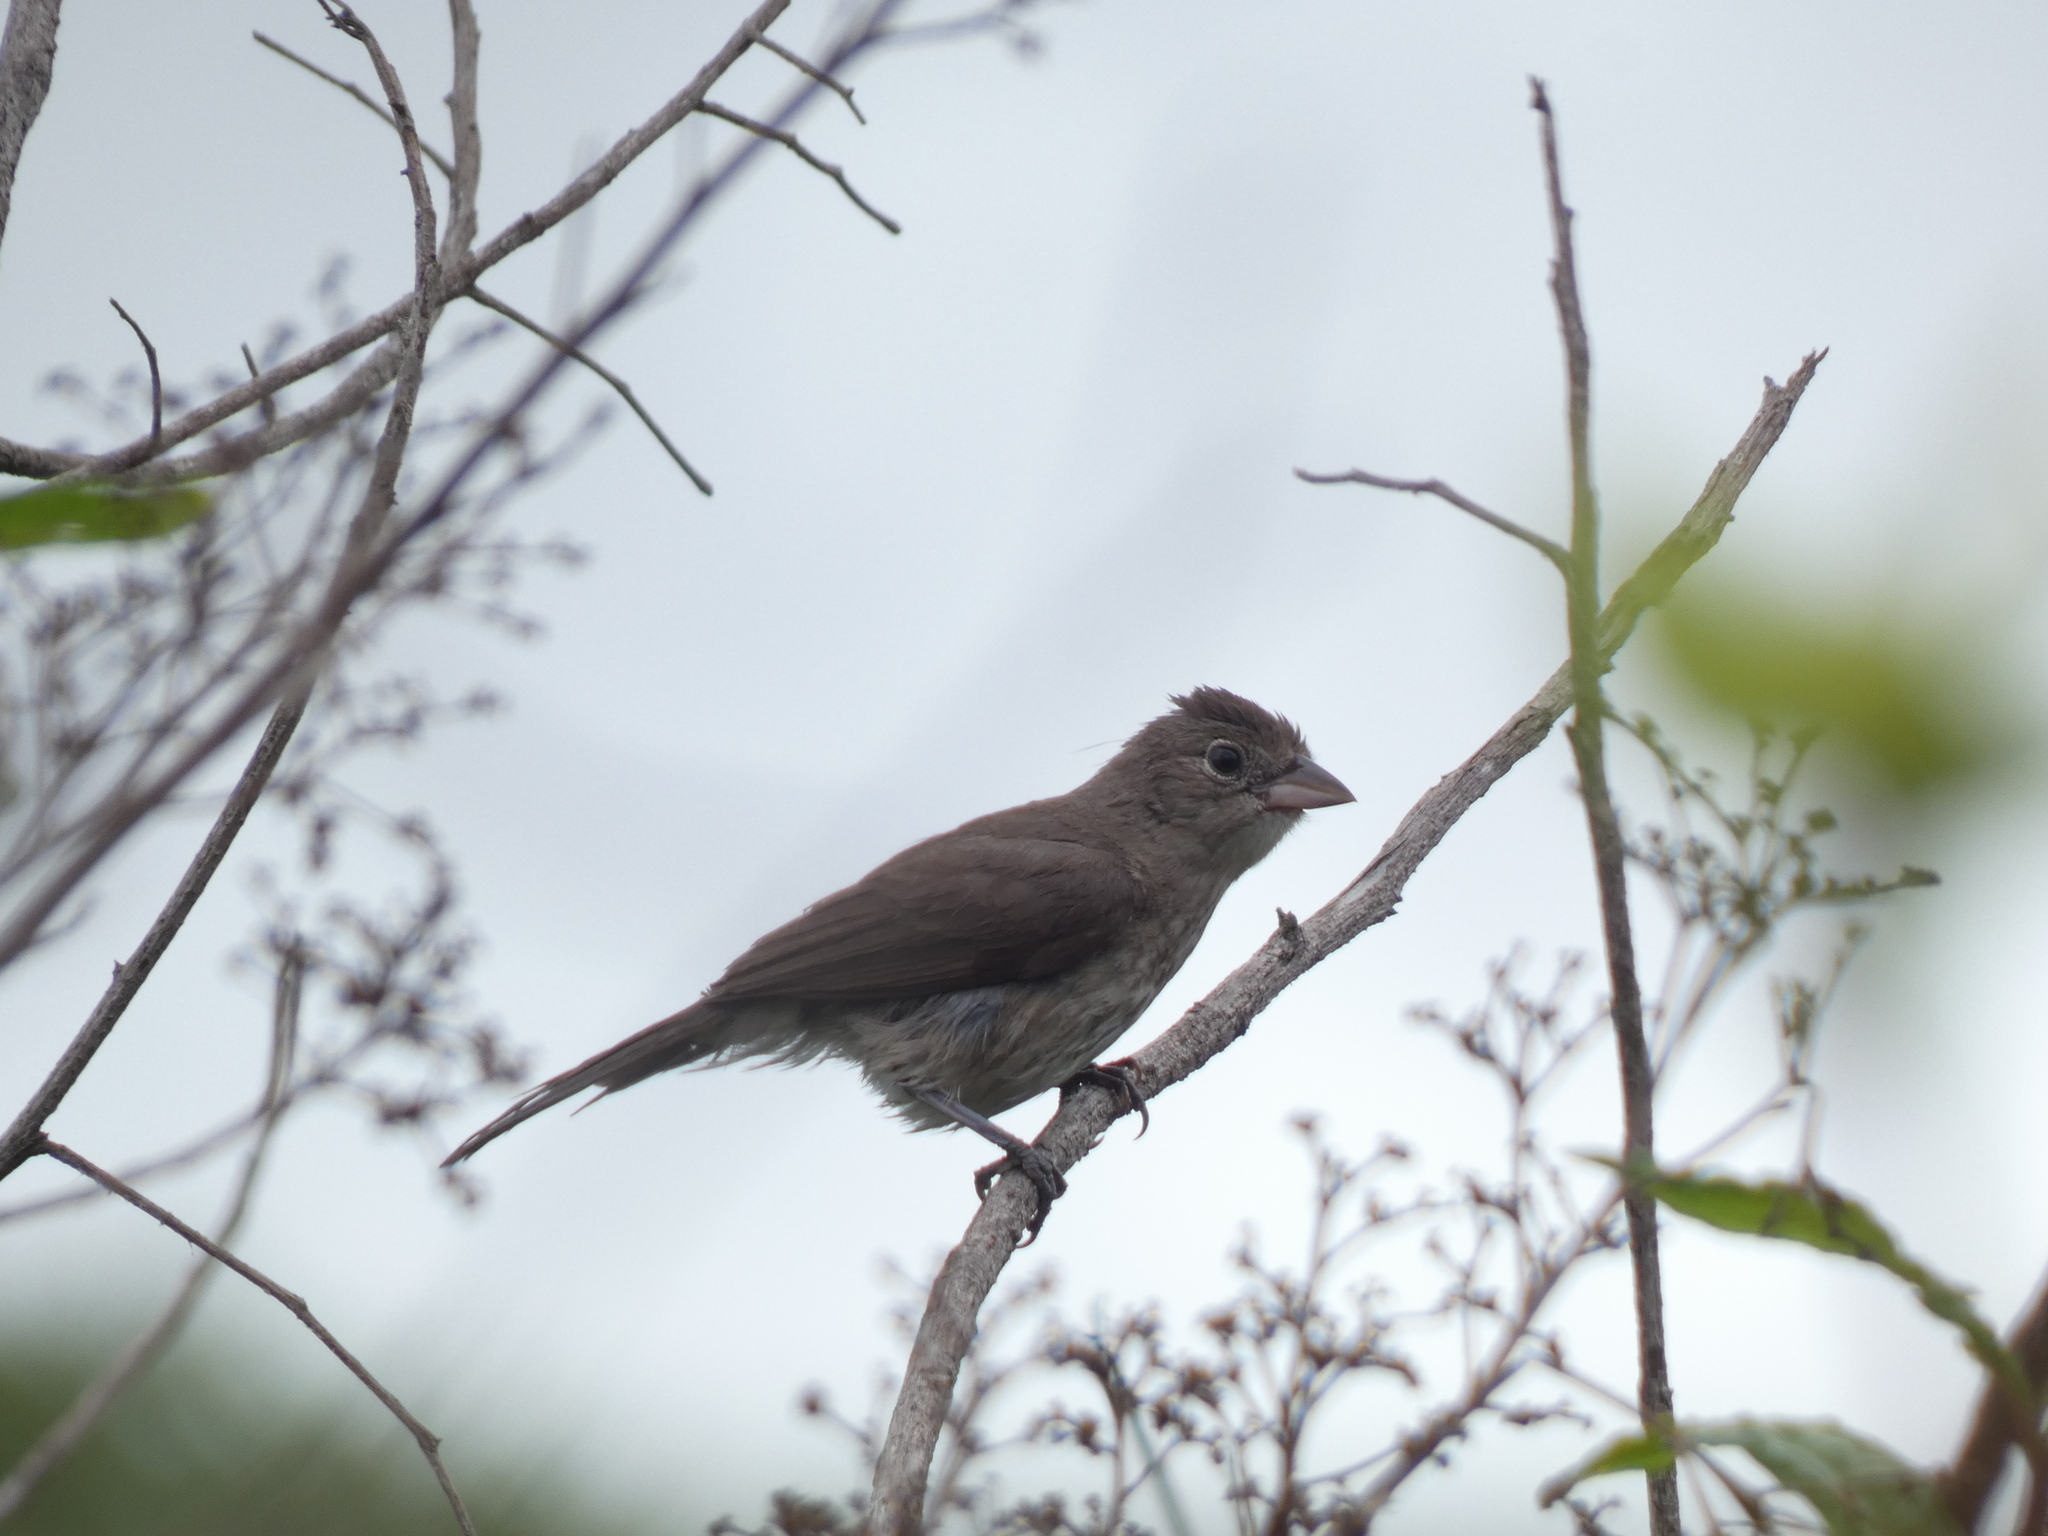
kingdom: Animalia
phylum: Chordata
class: Aves
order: Passeriformes
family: Thraupidae
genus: Coryphospingus
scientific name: Coryphospingus pileatus
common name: Grey pileated finch
